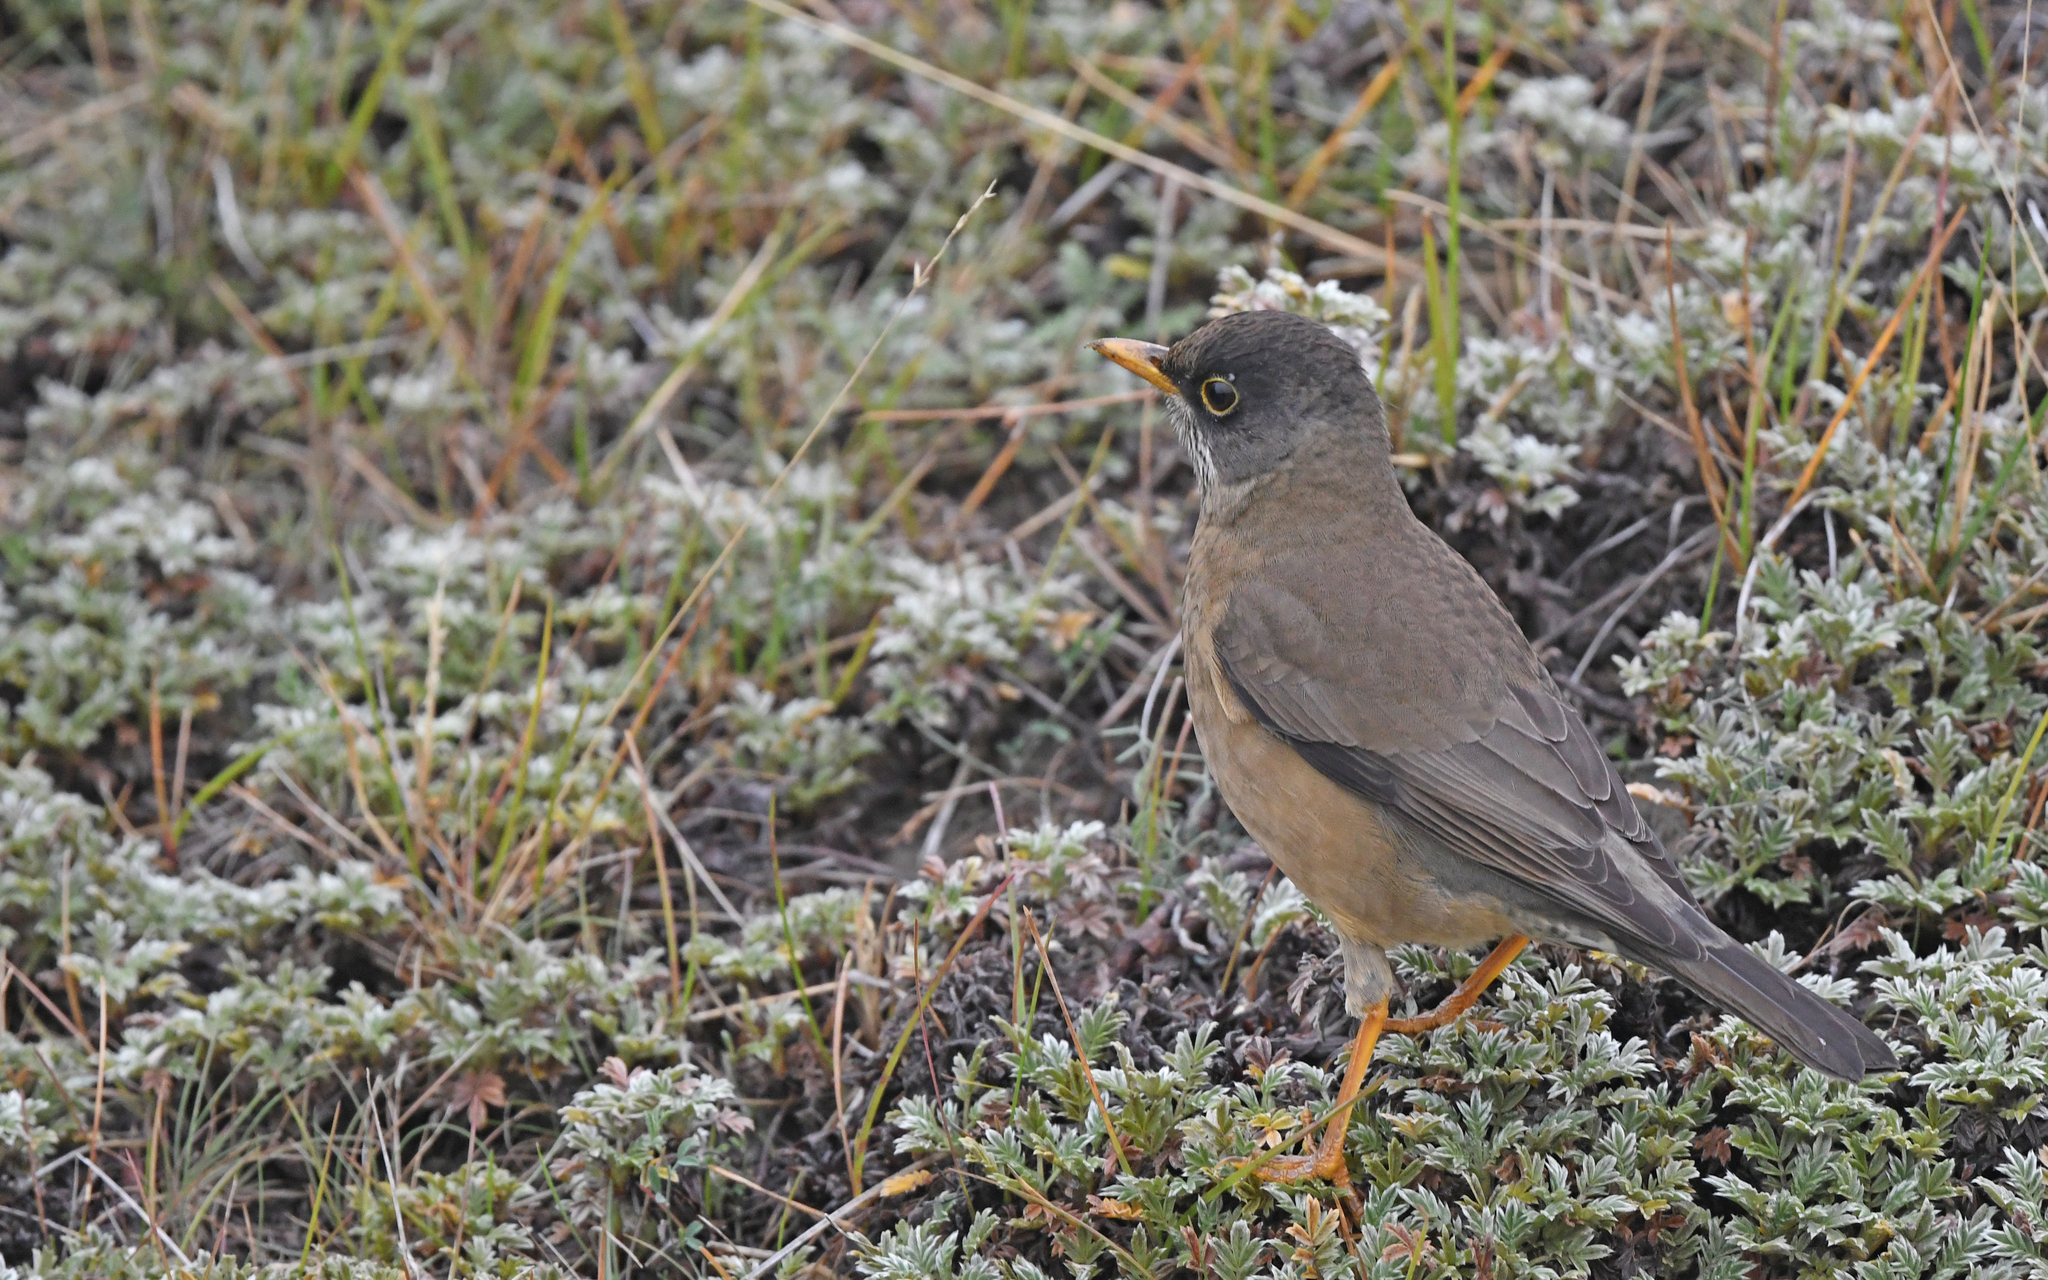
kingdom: Animalia
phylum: Chordata
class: Aves
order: Passeriformes
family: Turdidae
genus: Turdus
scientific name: Turdus falcklandii
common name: Austral thrush
